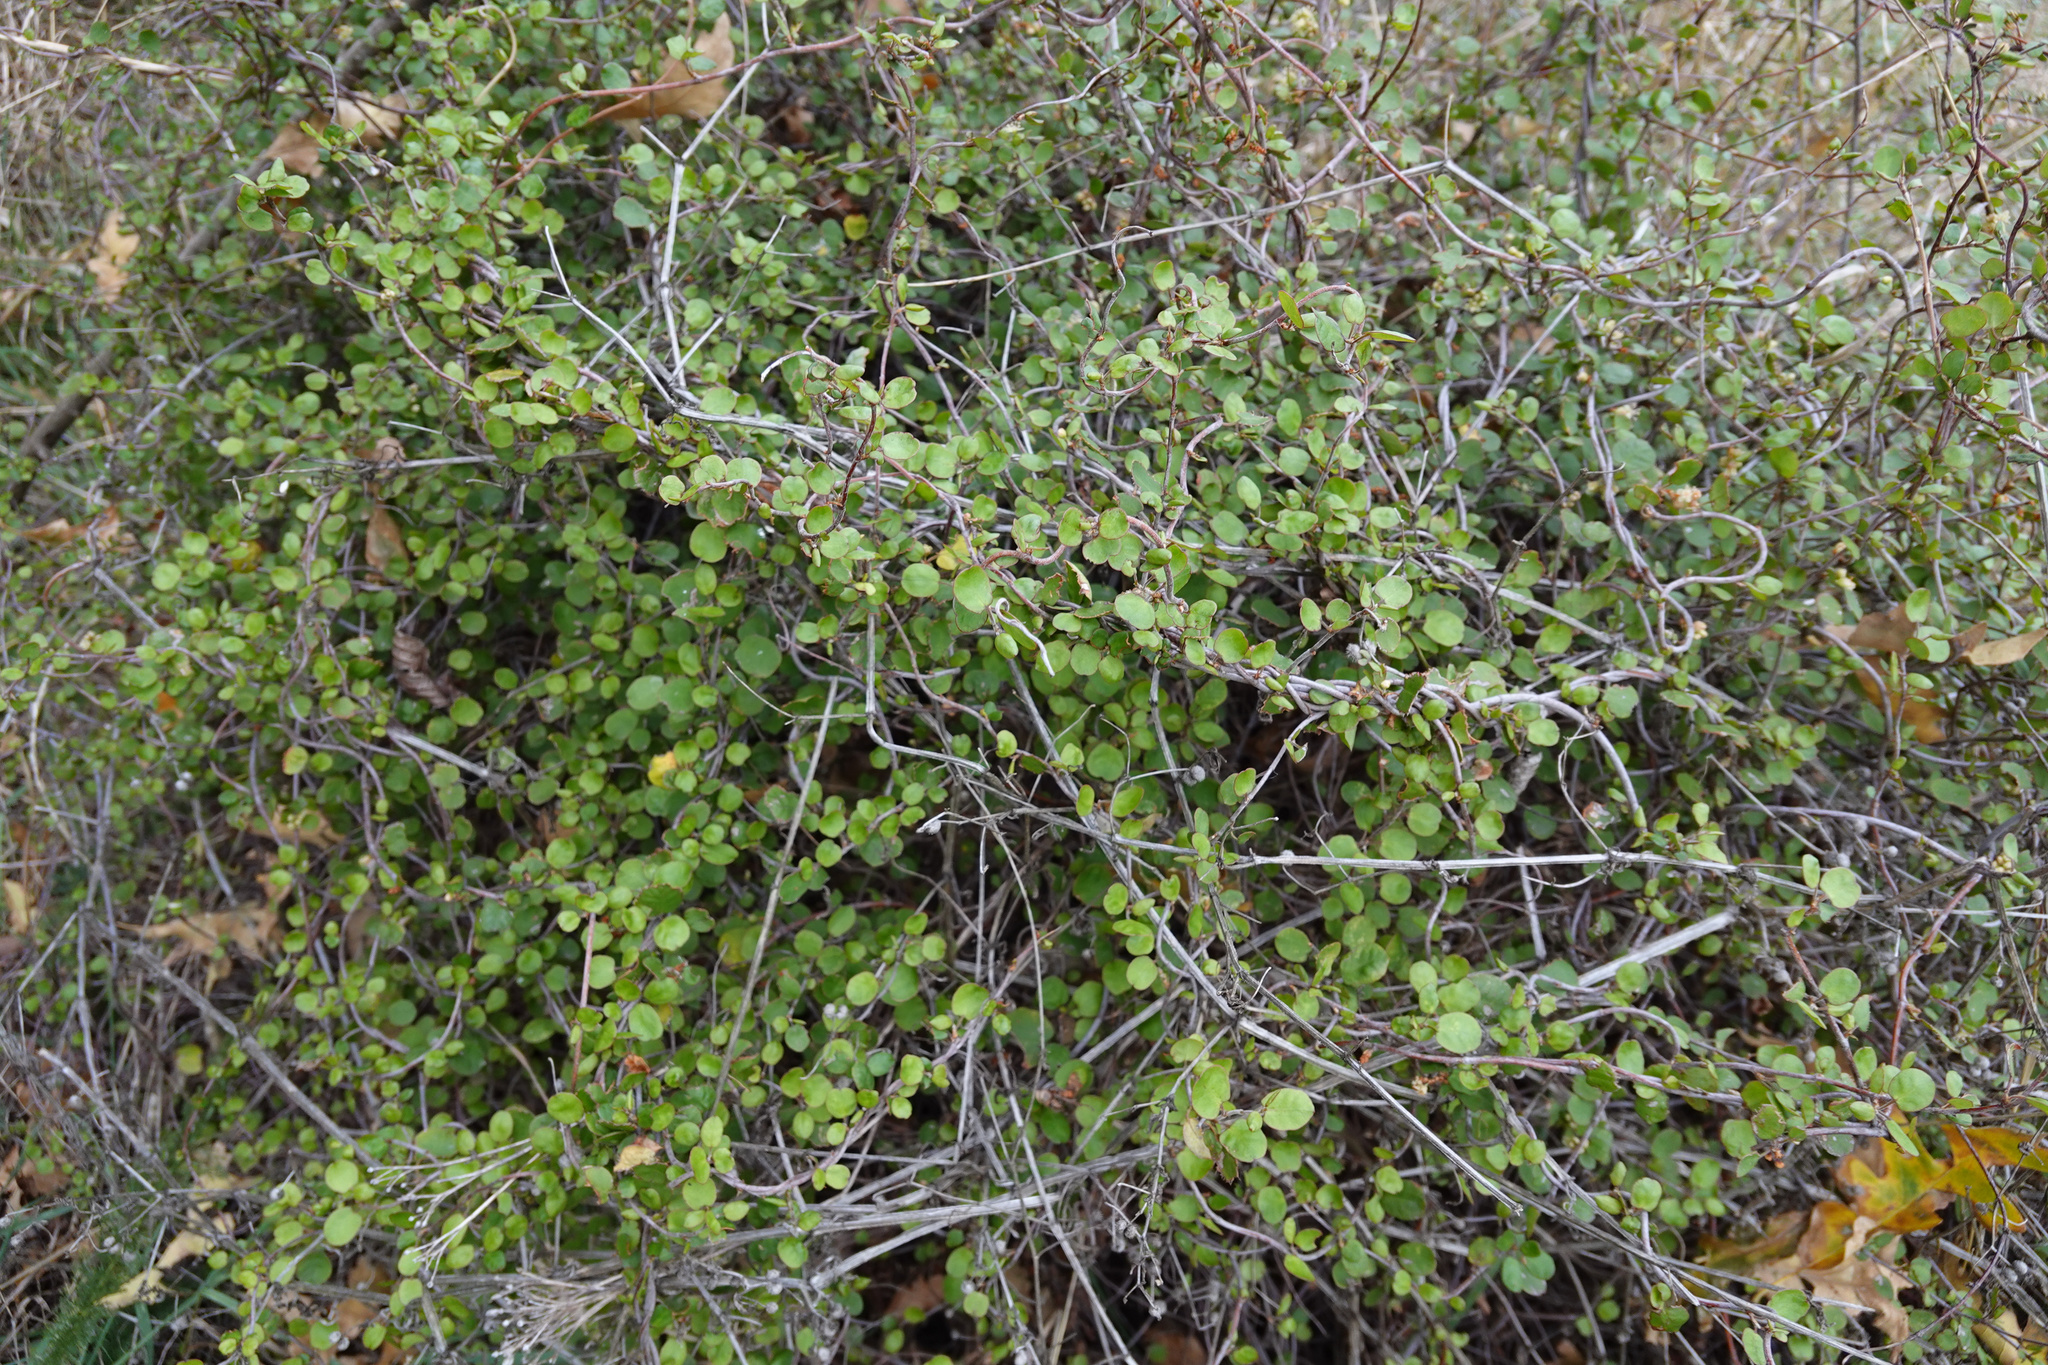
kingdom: Plantae
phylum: Tracheophyta
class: Magnoliopsida
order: Caryophyllales
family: Polygonaceae
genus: Muehlenbeckia
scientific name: Muehlenbeckia complexa
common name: Wireplant
